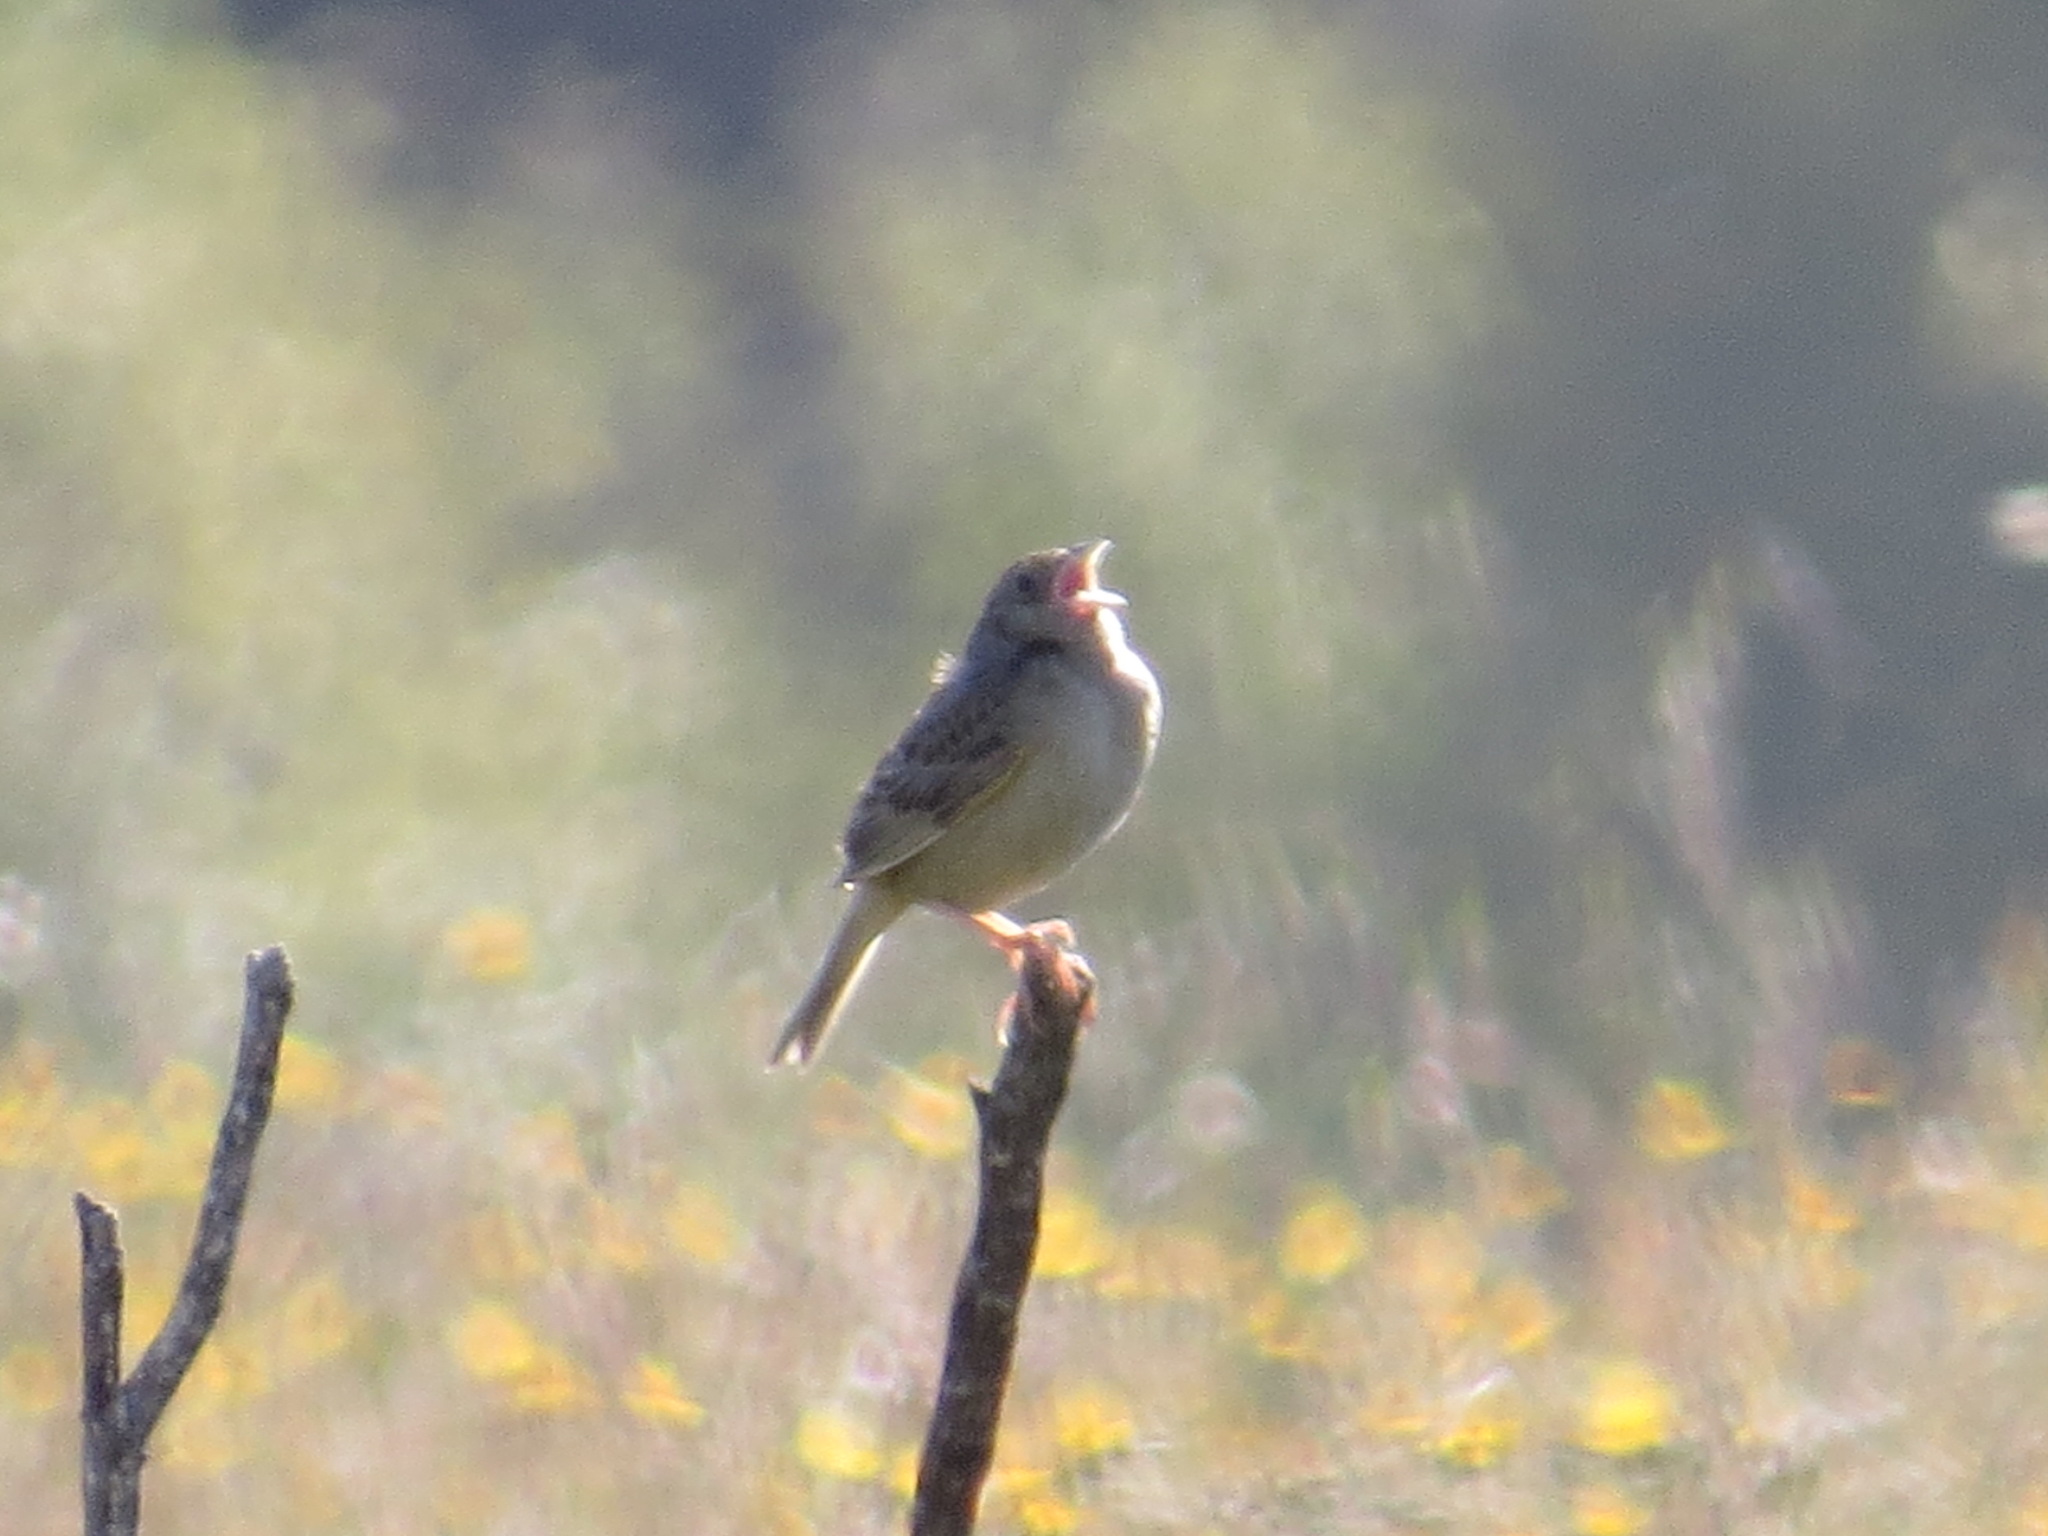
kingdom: Animalia
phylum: Chordata
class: Aves
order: Passeriformes
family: Passerellidae
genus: Ammodramus
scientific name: Ammodramus savannarum
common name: Grasshopper sparrow
